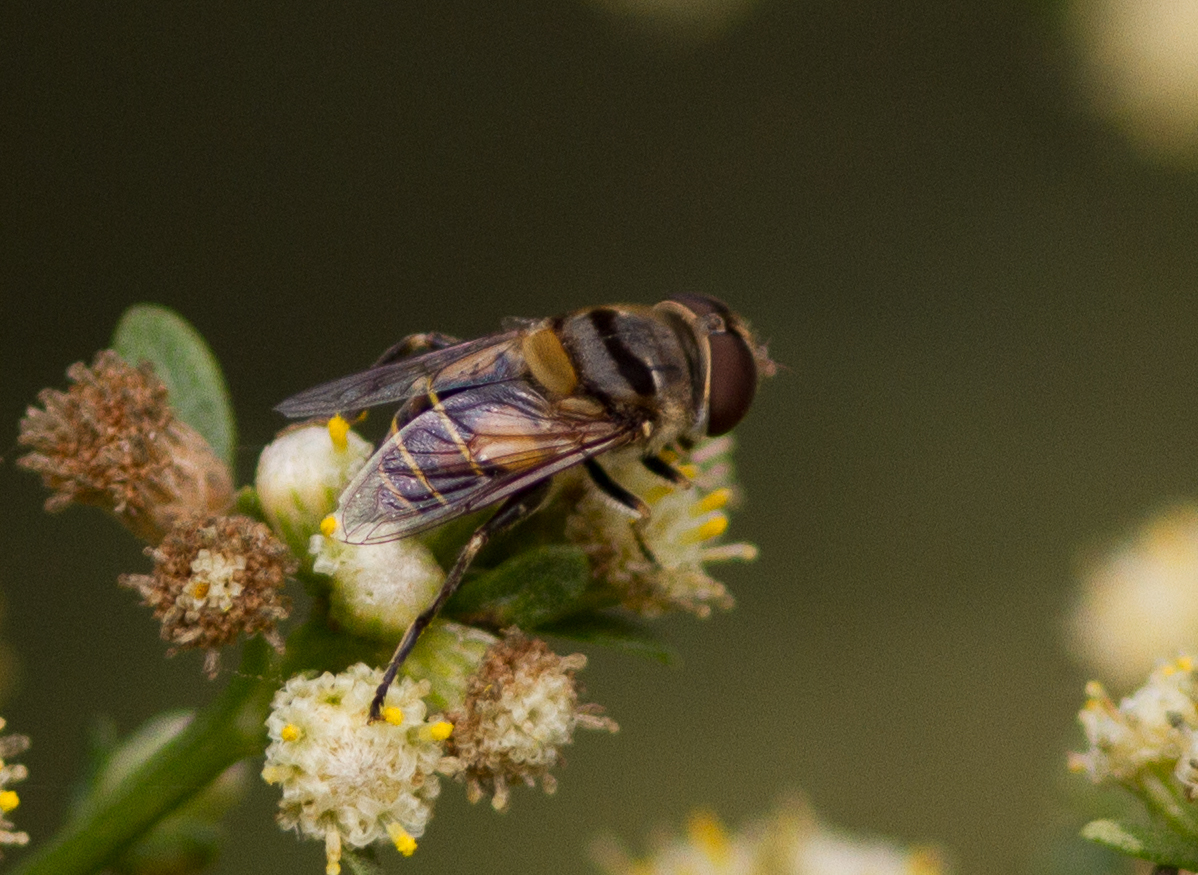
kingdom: Animalia
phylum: Arthropoda
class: Insecta
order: Diptera
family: Syrphidae
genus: Palpada
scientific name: Palpada alhambra
